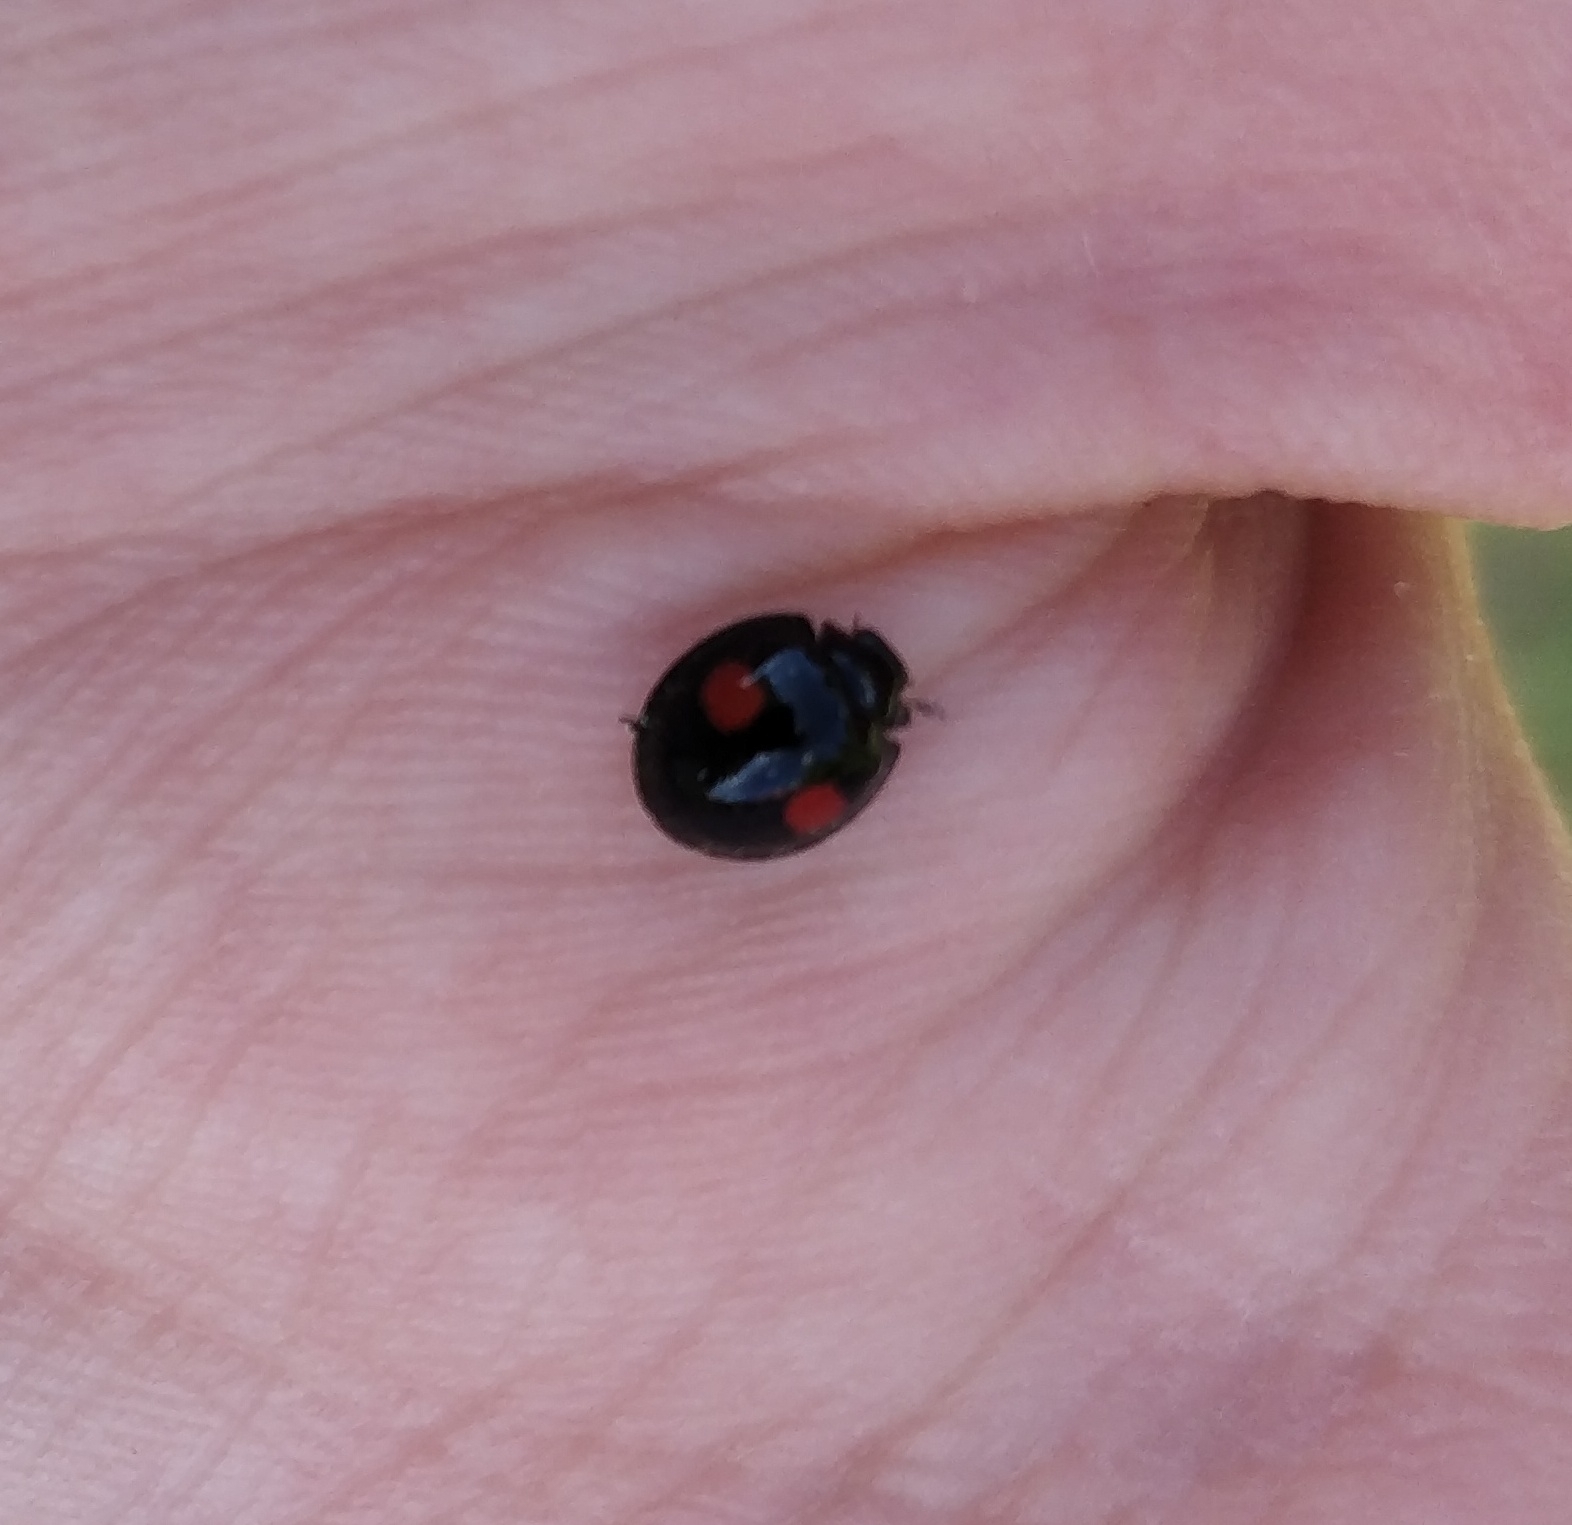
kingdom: Animalia
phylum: Arthropoda
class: Insecta
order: Coleoptera
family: Coccinellidae
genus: Chilocorus
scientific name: Chilocorus renipustulatus
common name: Kidney-spot ladybird
